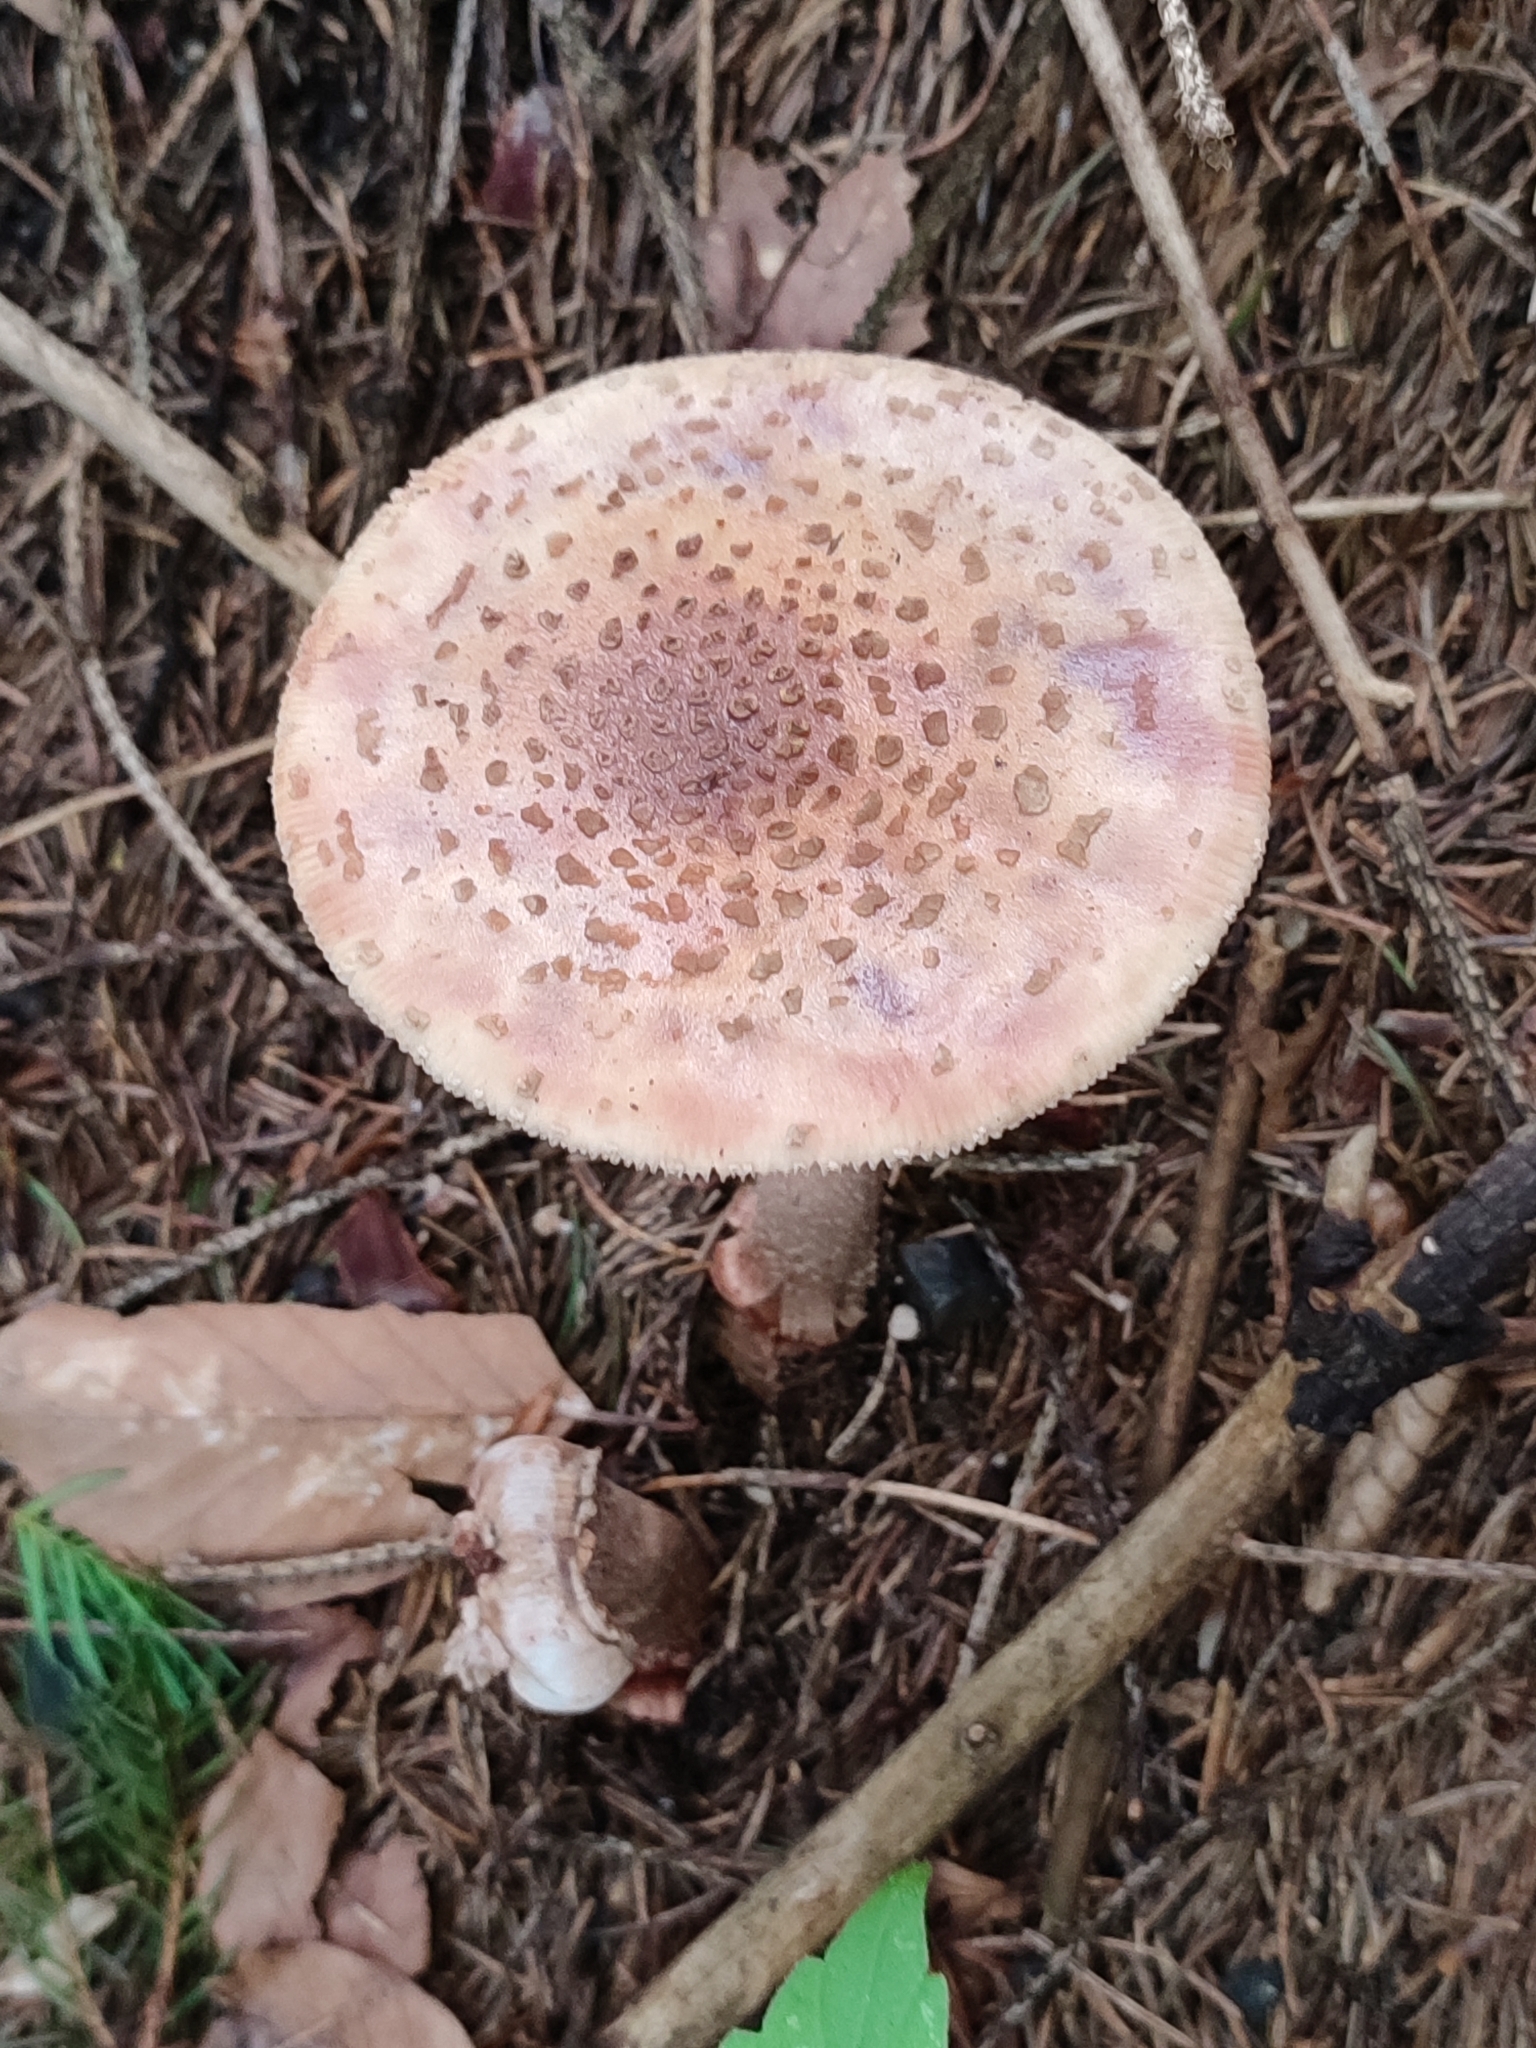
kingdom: Fungi
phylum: Basidiomycota
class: Agaricomycetes
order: Agaricales
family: Amanitaceae
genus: Amanita
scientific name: Amanita rubescens
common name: Blusher
